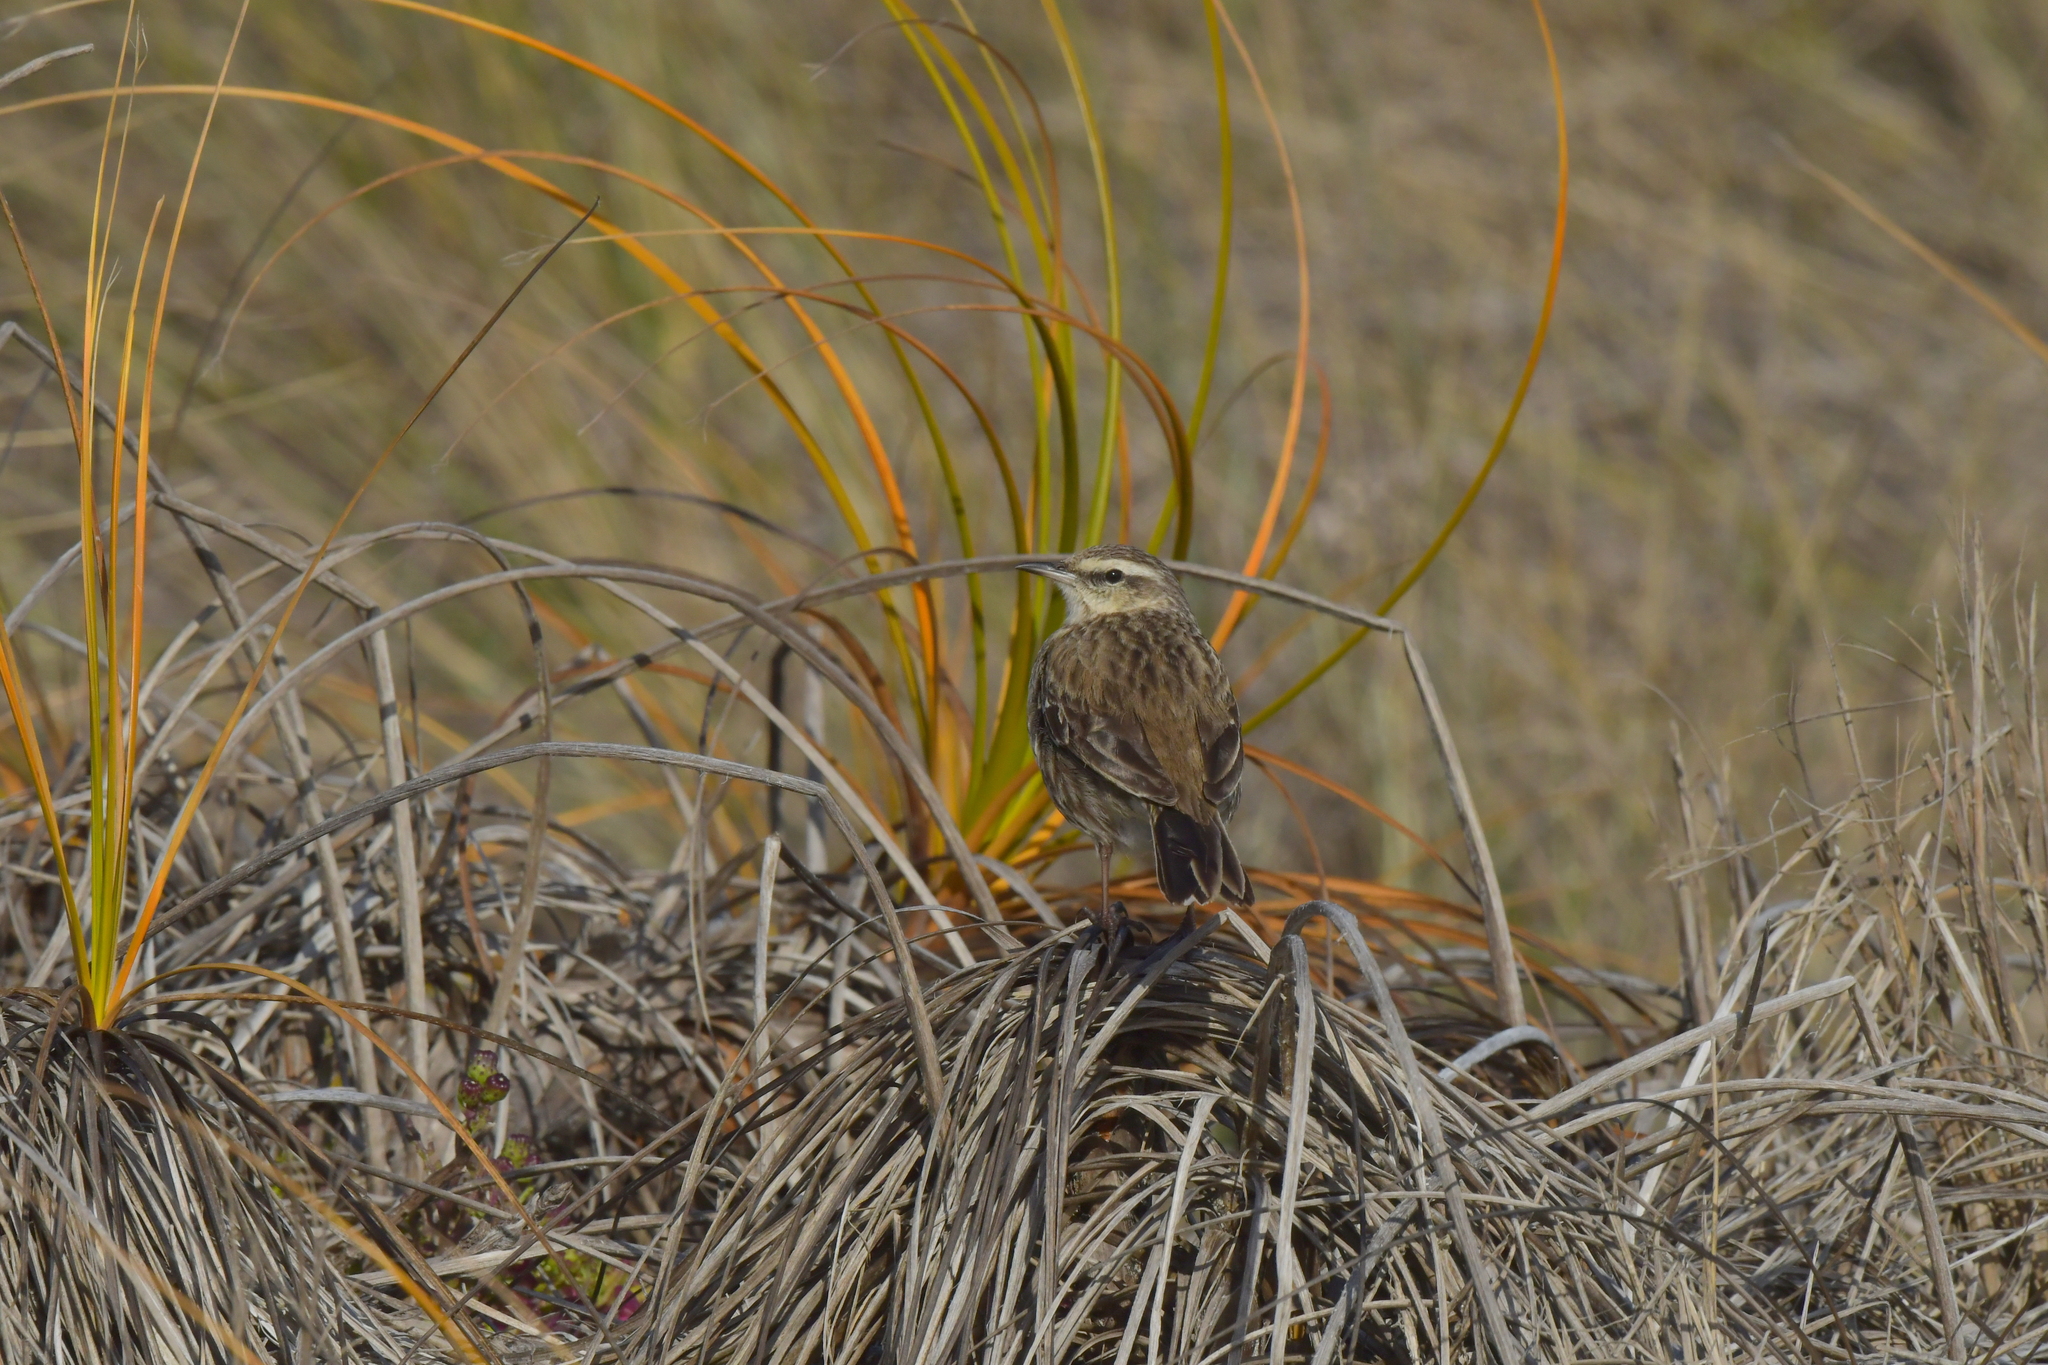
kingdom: Animalia
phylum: Chordata
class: Aves
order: Passeriformes
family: Motacillidae
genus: Anthus
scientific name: Anthus novaeseelandiae
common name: New zealand pipit
